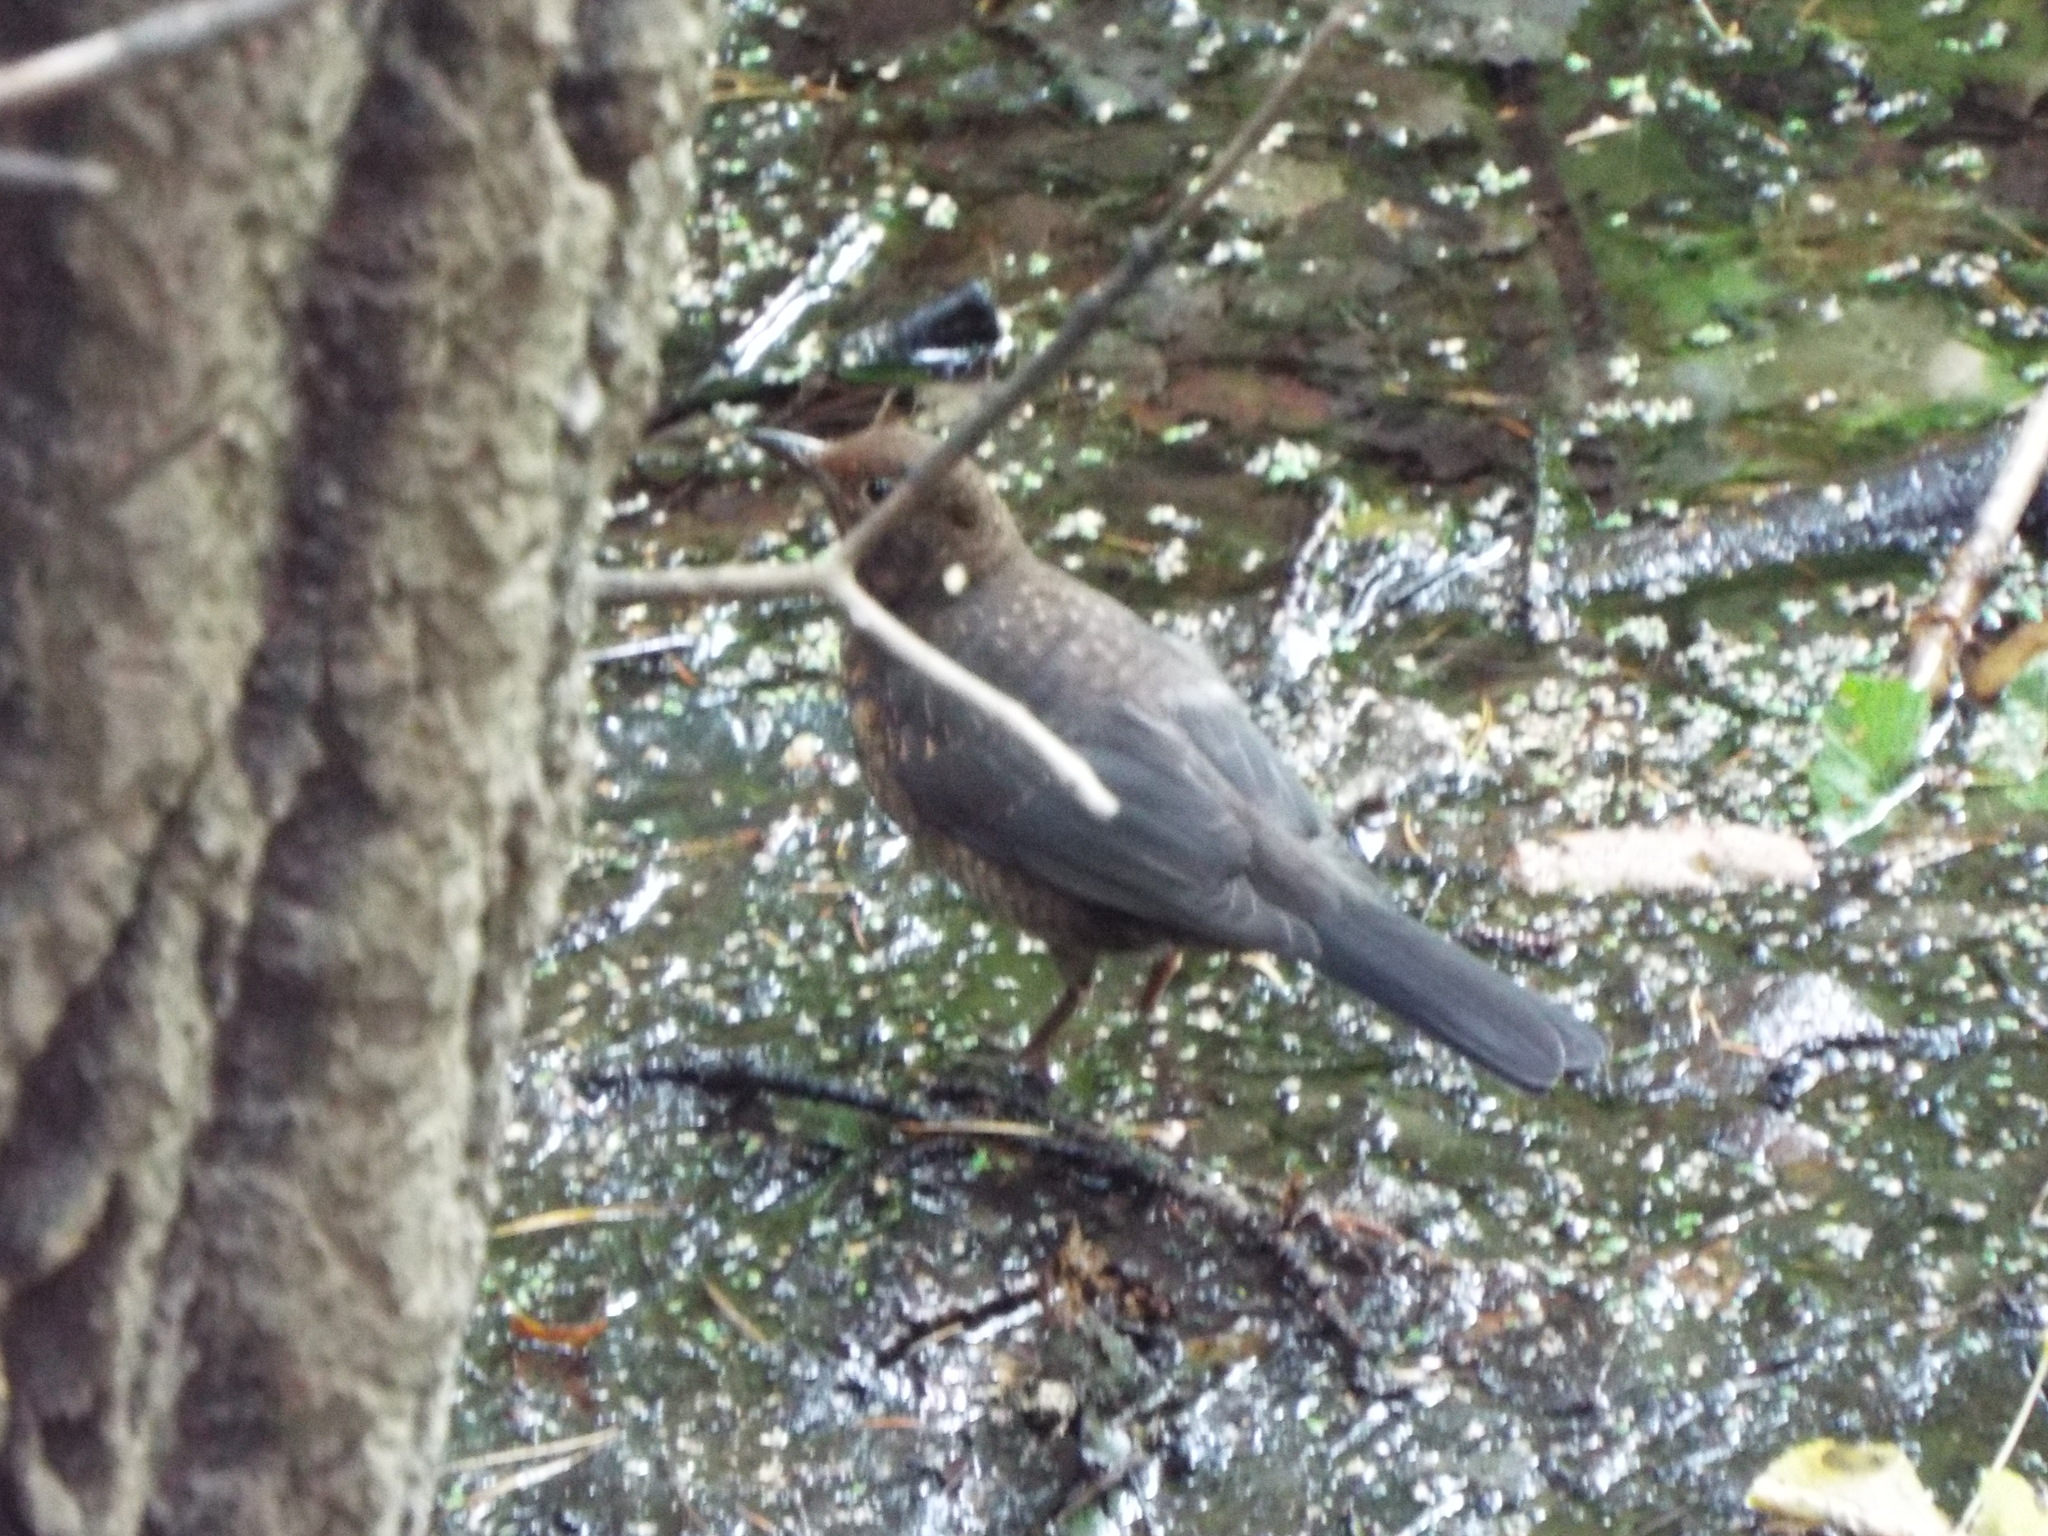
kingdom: Animalia
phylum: Chordata
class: Aves
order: Passeriformes
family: Turdidae
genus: Turdus
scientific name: Turdus merula
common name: Common blackbird
